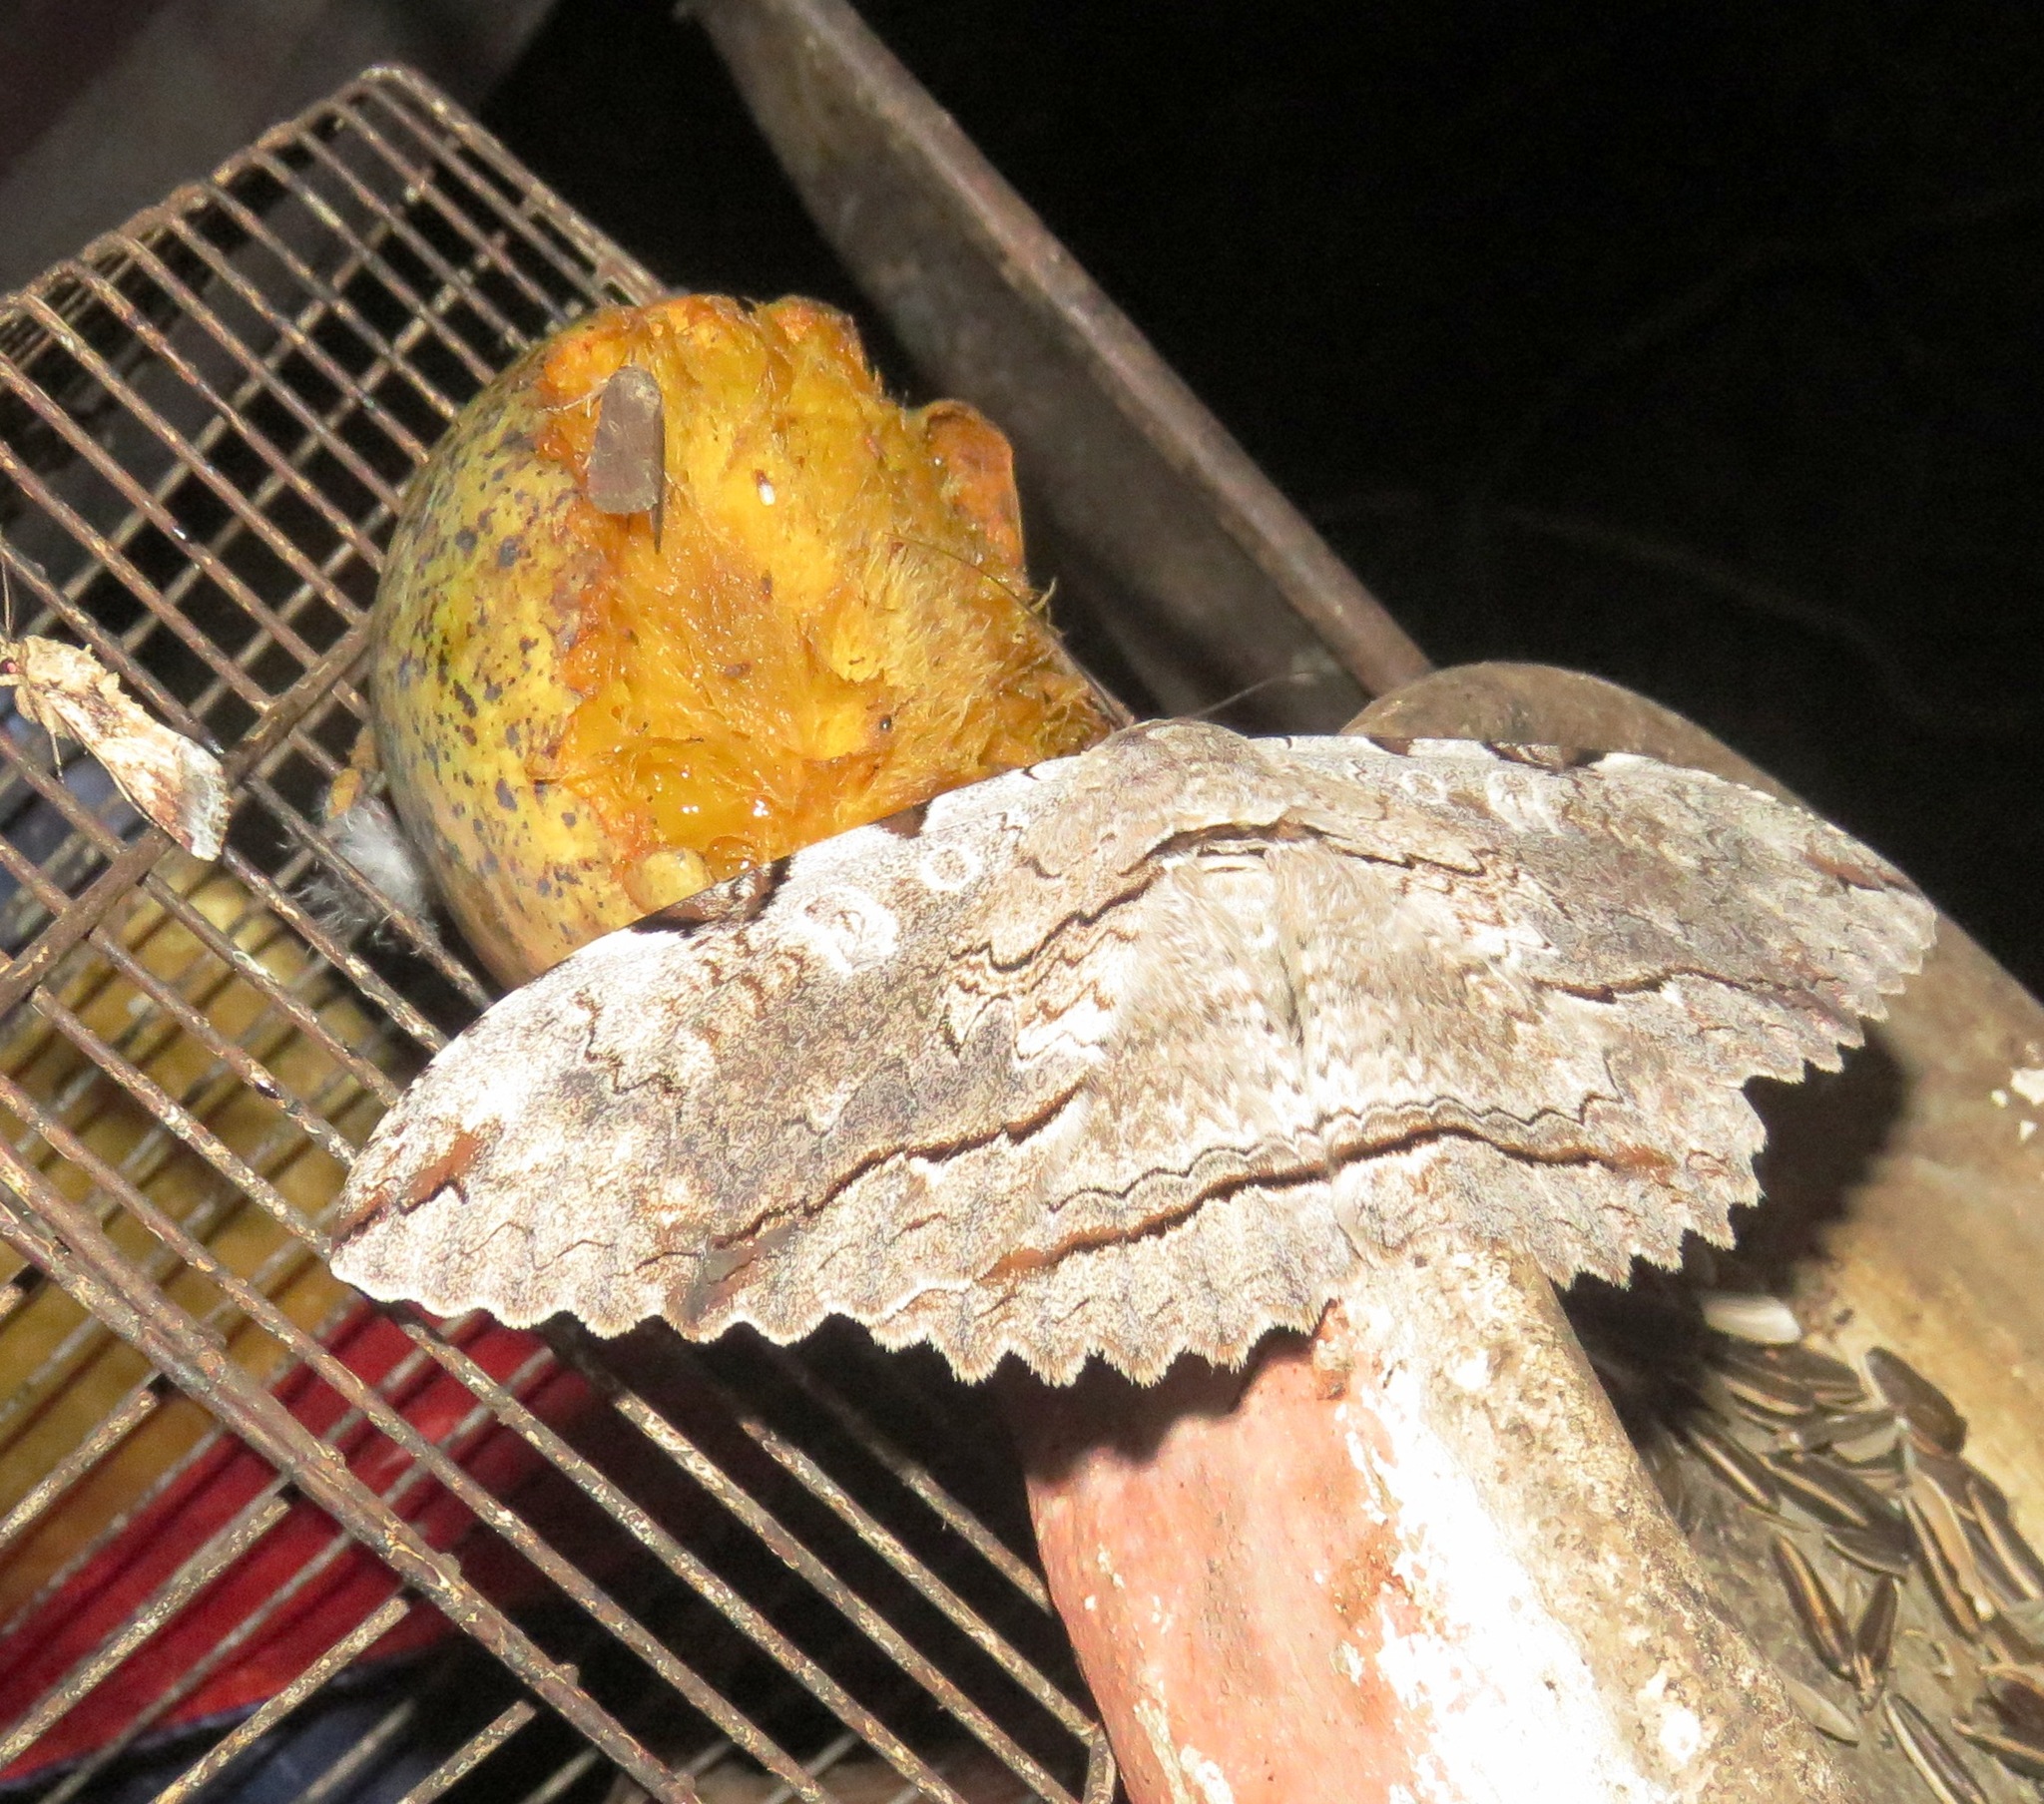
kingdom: Animalia
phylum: Arthropoda
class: Insecta
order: Lepidoptera
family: Erebidae
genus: Thysania
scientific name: Thysania zenobia
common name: Owl moth
